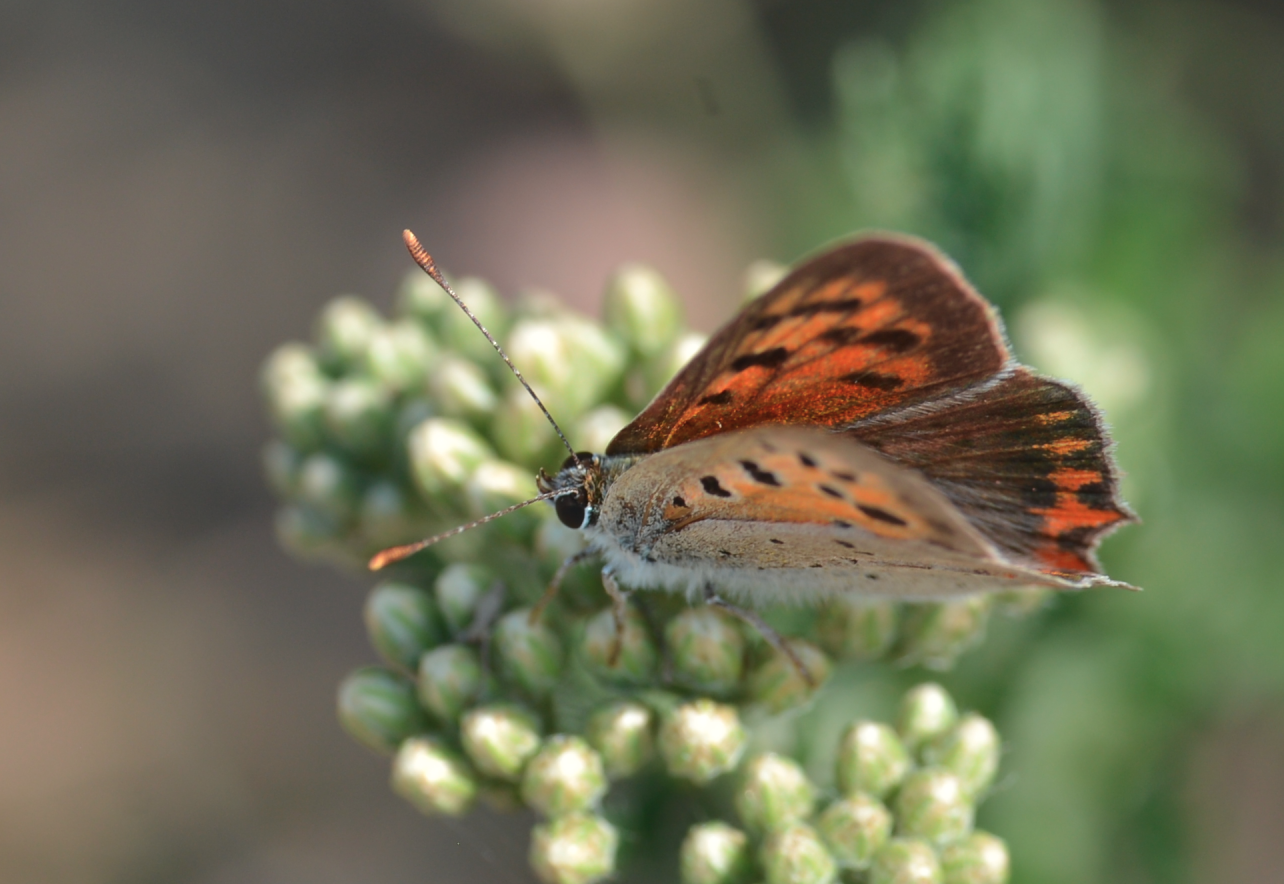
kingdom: Animalia
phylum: Arthropoda
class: Insecta
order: Lepidoptera
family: Lycaenidae
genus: Lycaena
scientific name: Lycaena phlaeas
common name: Small copper
